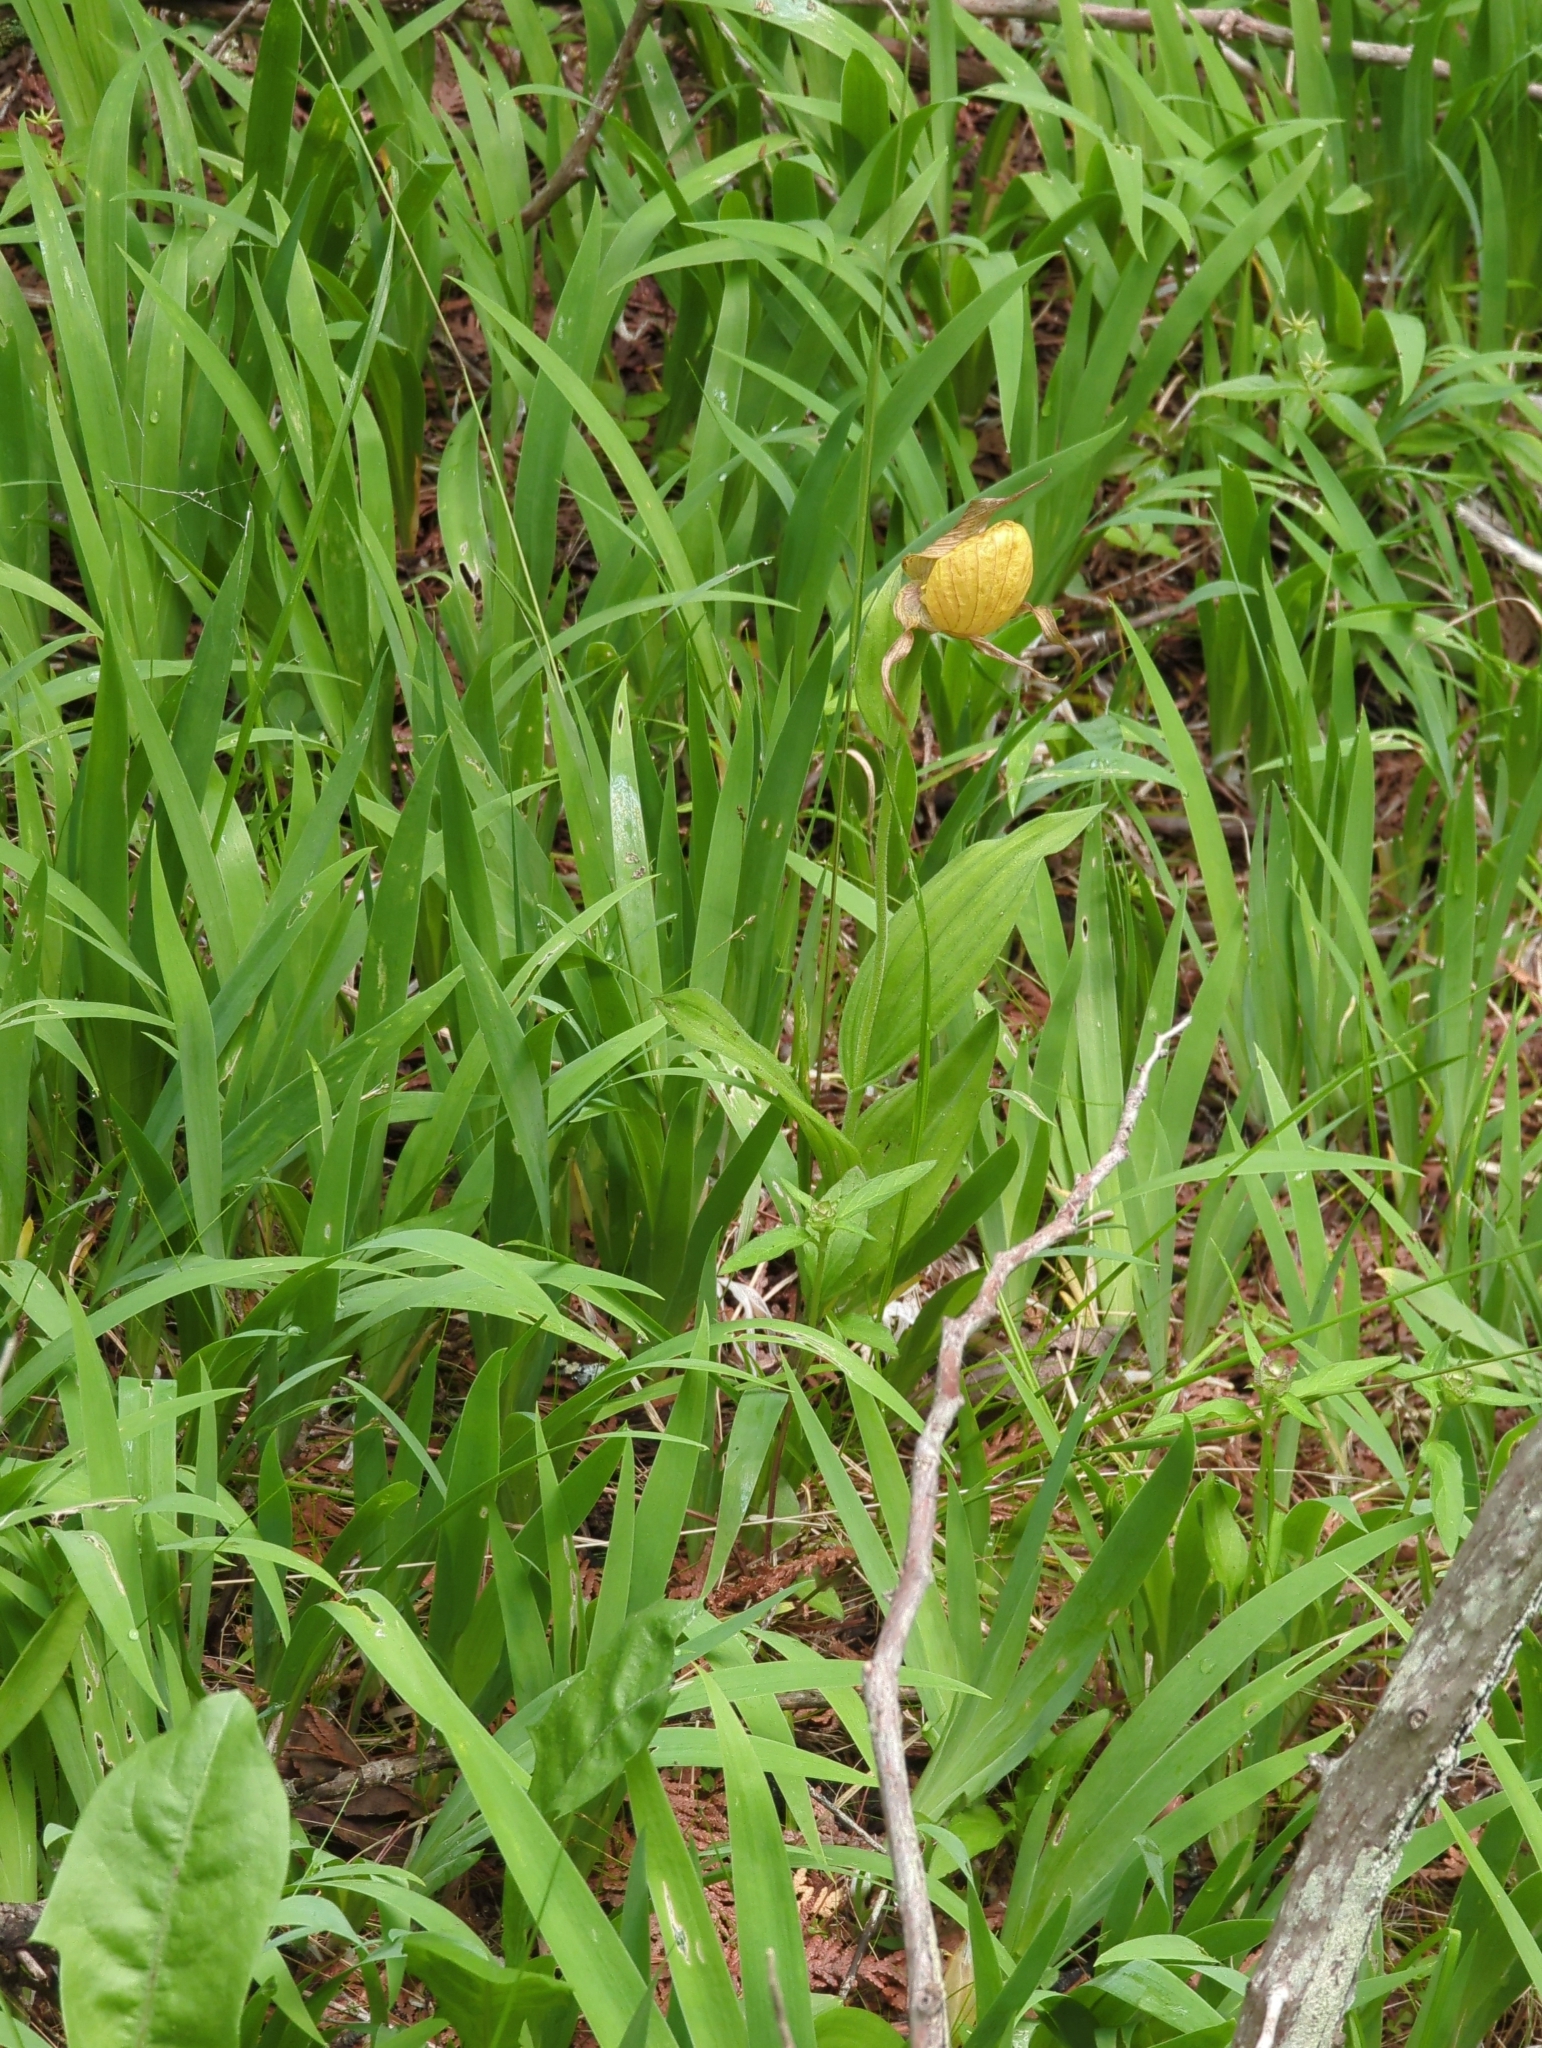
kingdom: Plantae
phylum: Tracheophyta
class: Liliopsida
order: Asparagales
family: Orchidaceae
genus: Cypripedium
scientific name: Cypripedium parviflorum
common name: American yellow lady's-slipper
